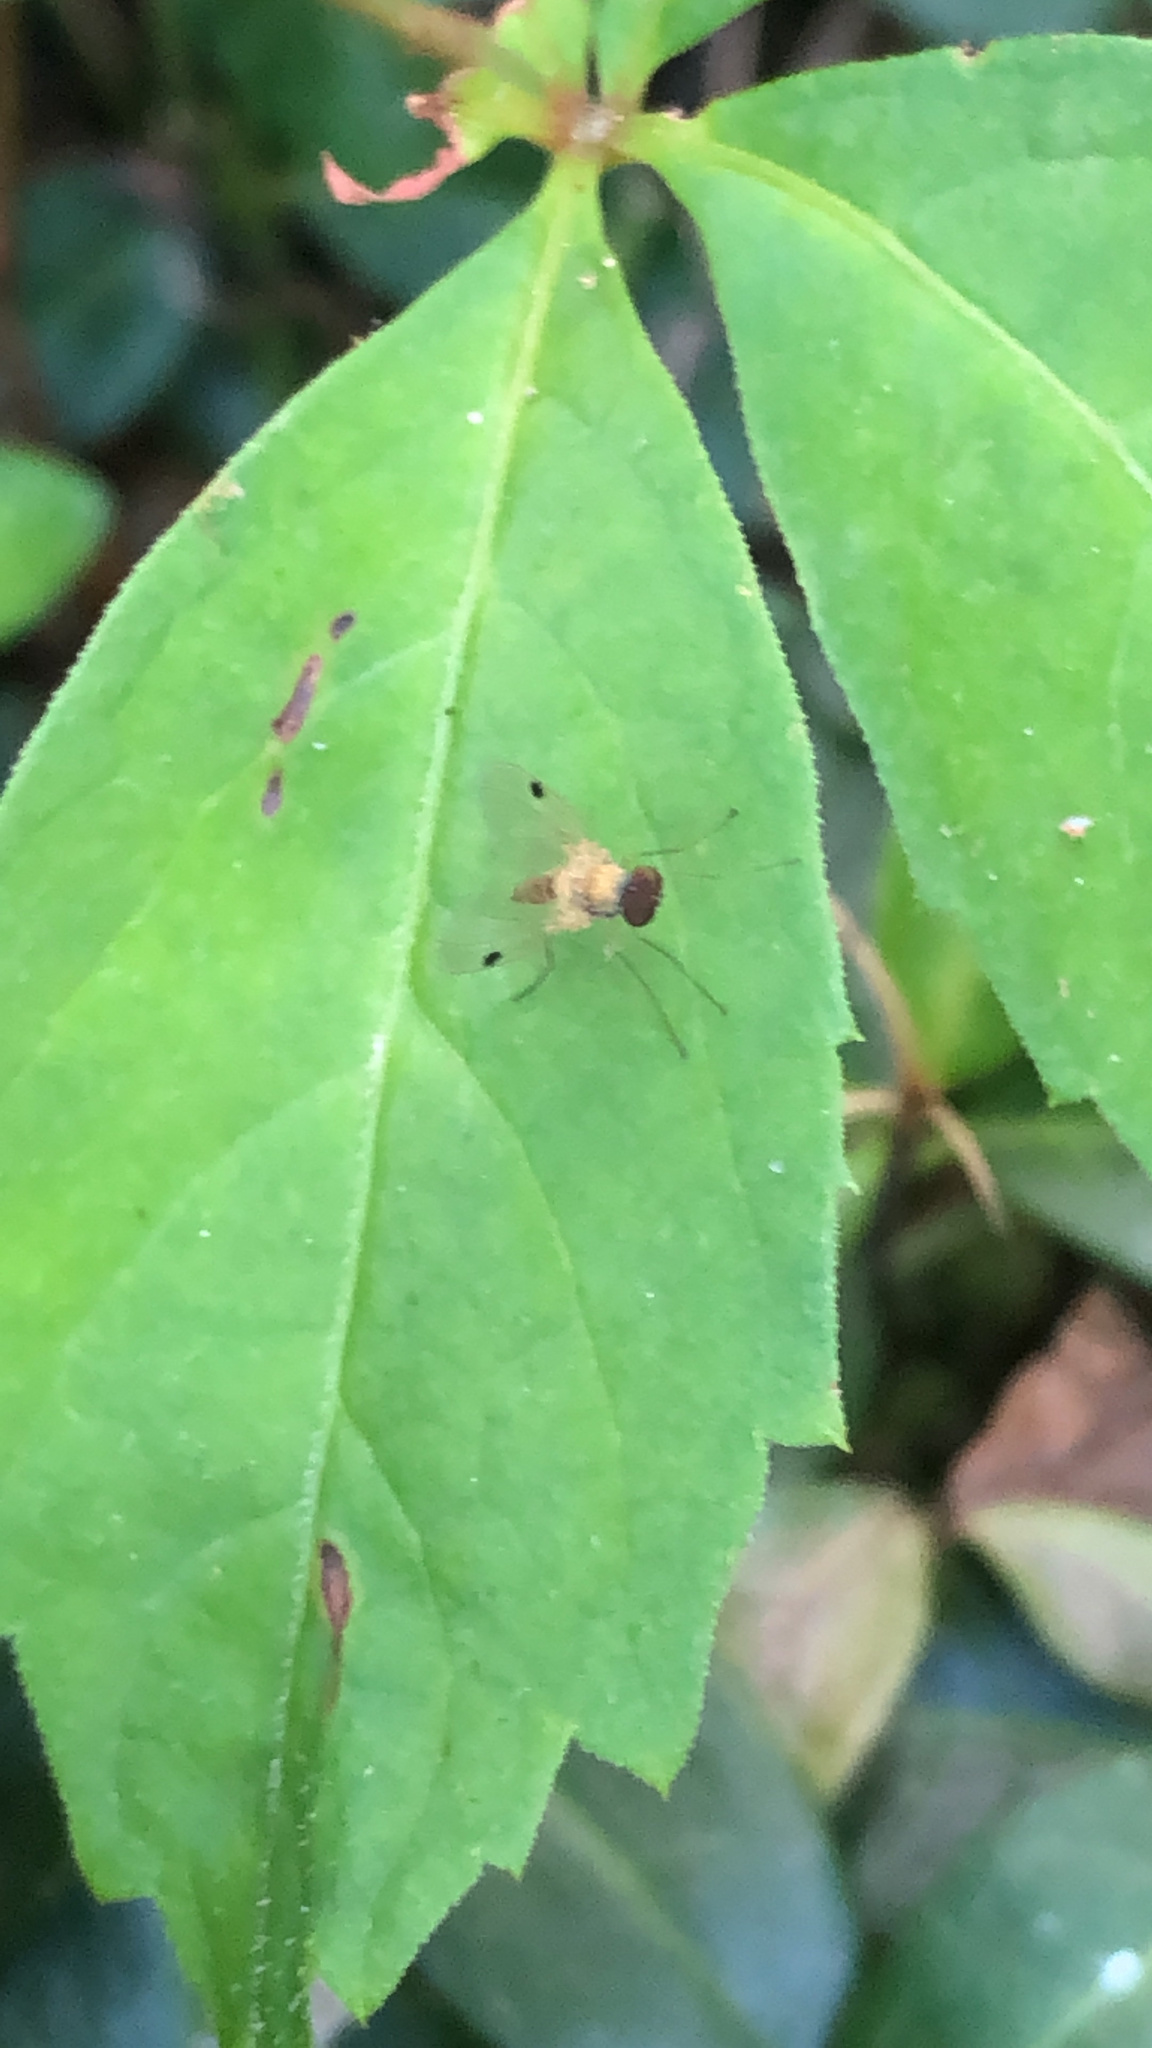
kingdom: Animalia
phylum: Arthropoda
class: Insecta
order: Diptera
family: Rhagionidae
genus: Chrysopilus
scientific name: Chrysopilus modestus
